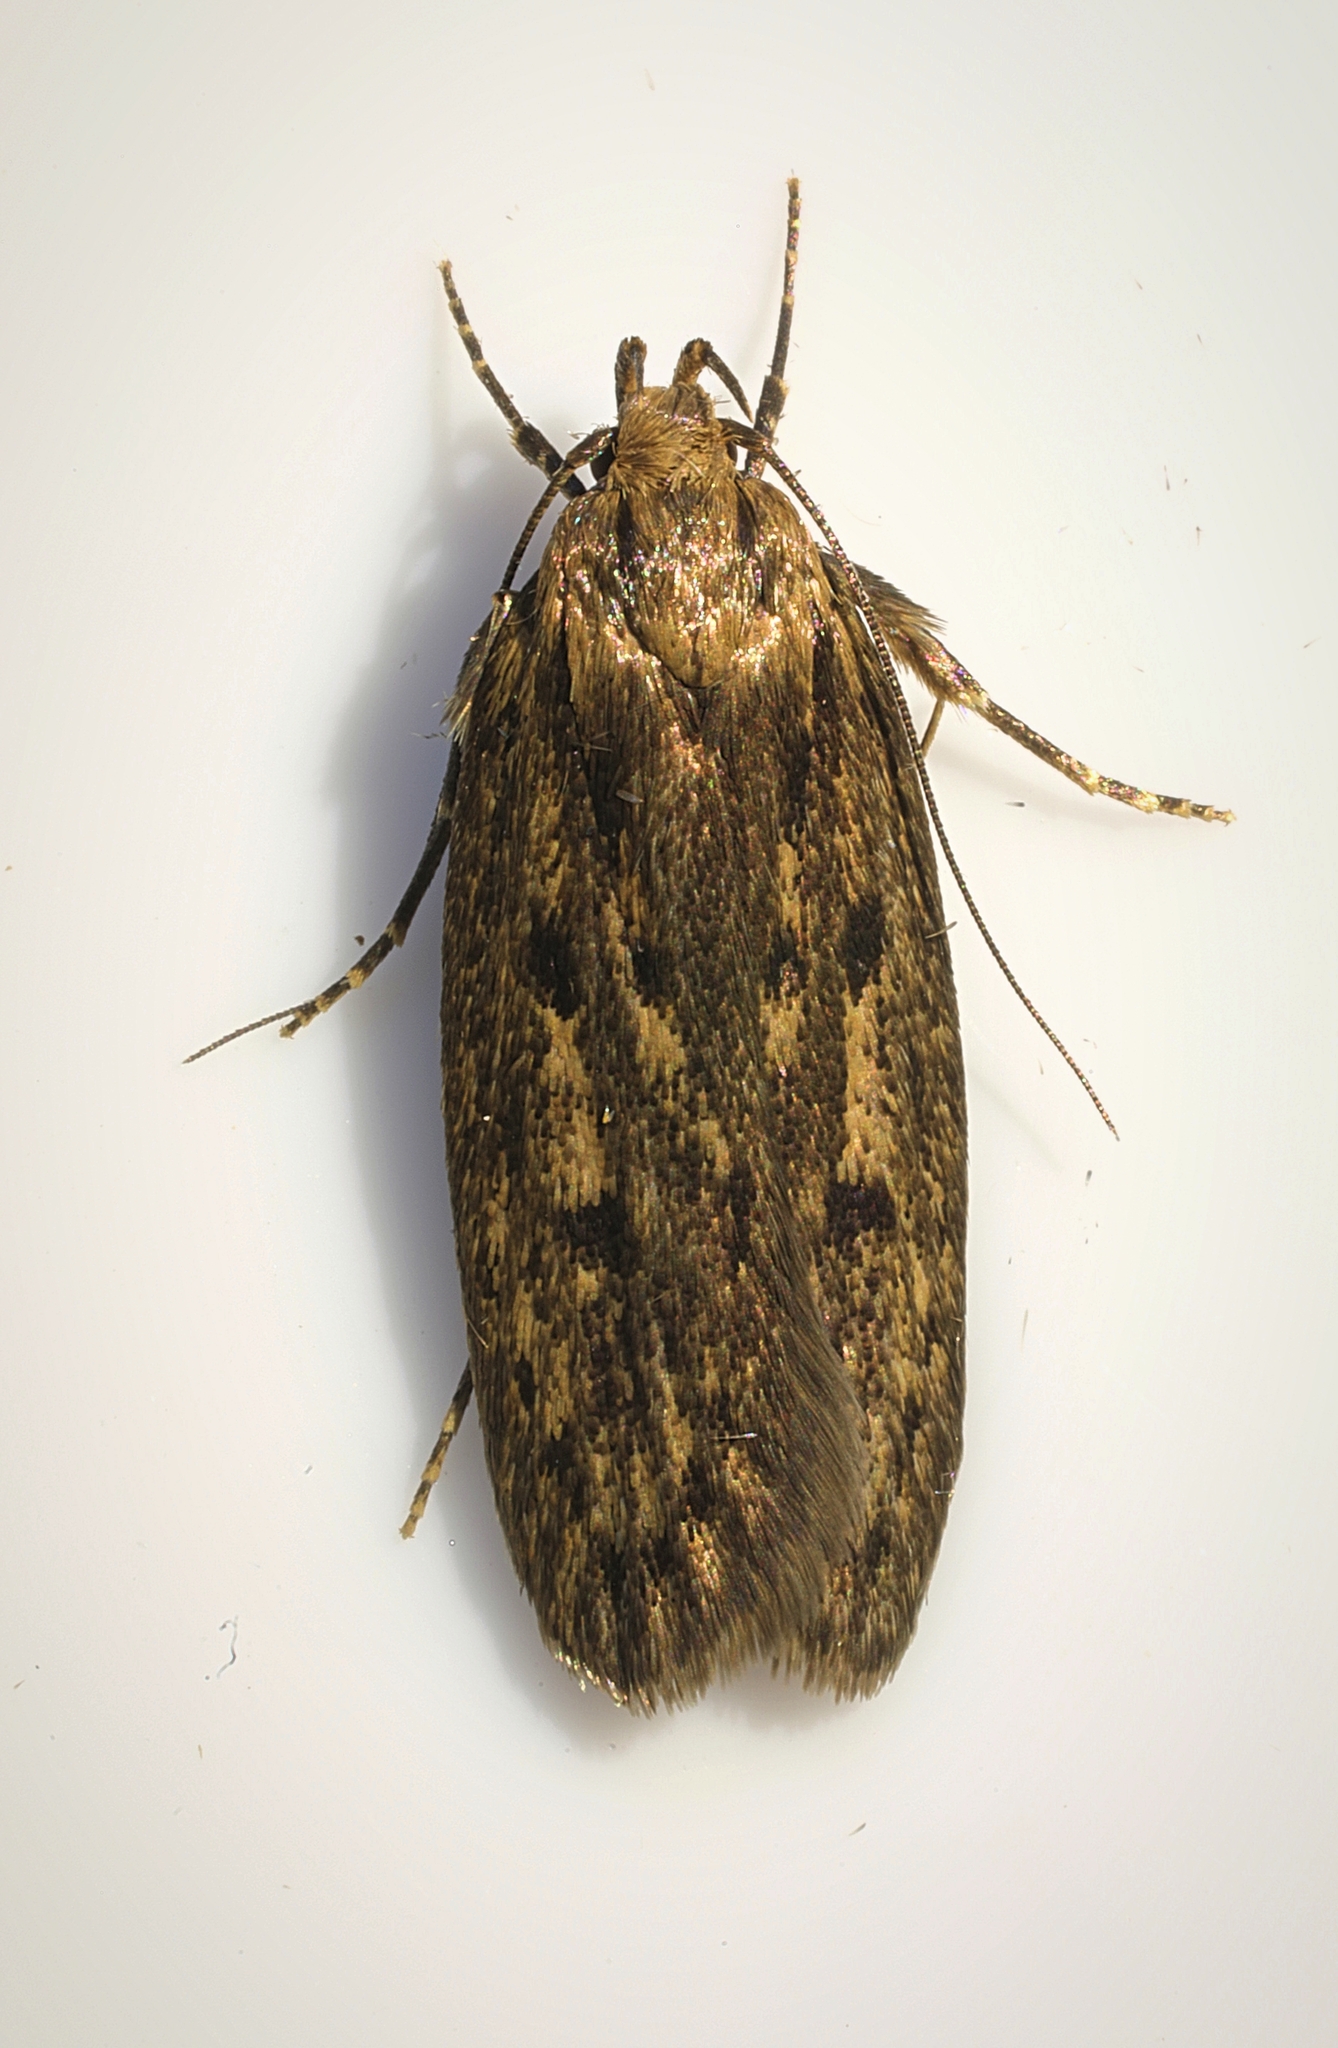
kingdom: Animalia
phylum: Arthropoda
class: Insecta
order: Lepidoptera
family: Oecophoridae
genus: Hofmannophila
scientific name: Hofmannophila pseudospretella
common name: Brown house moth
